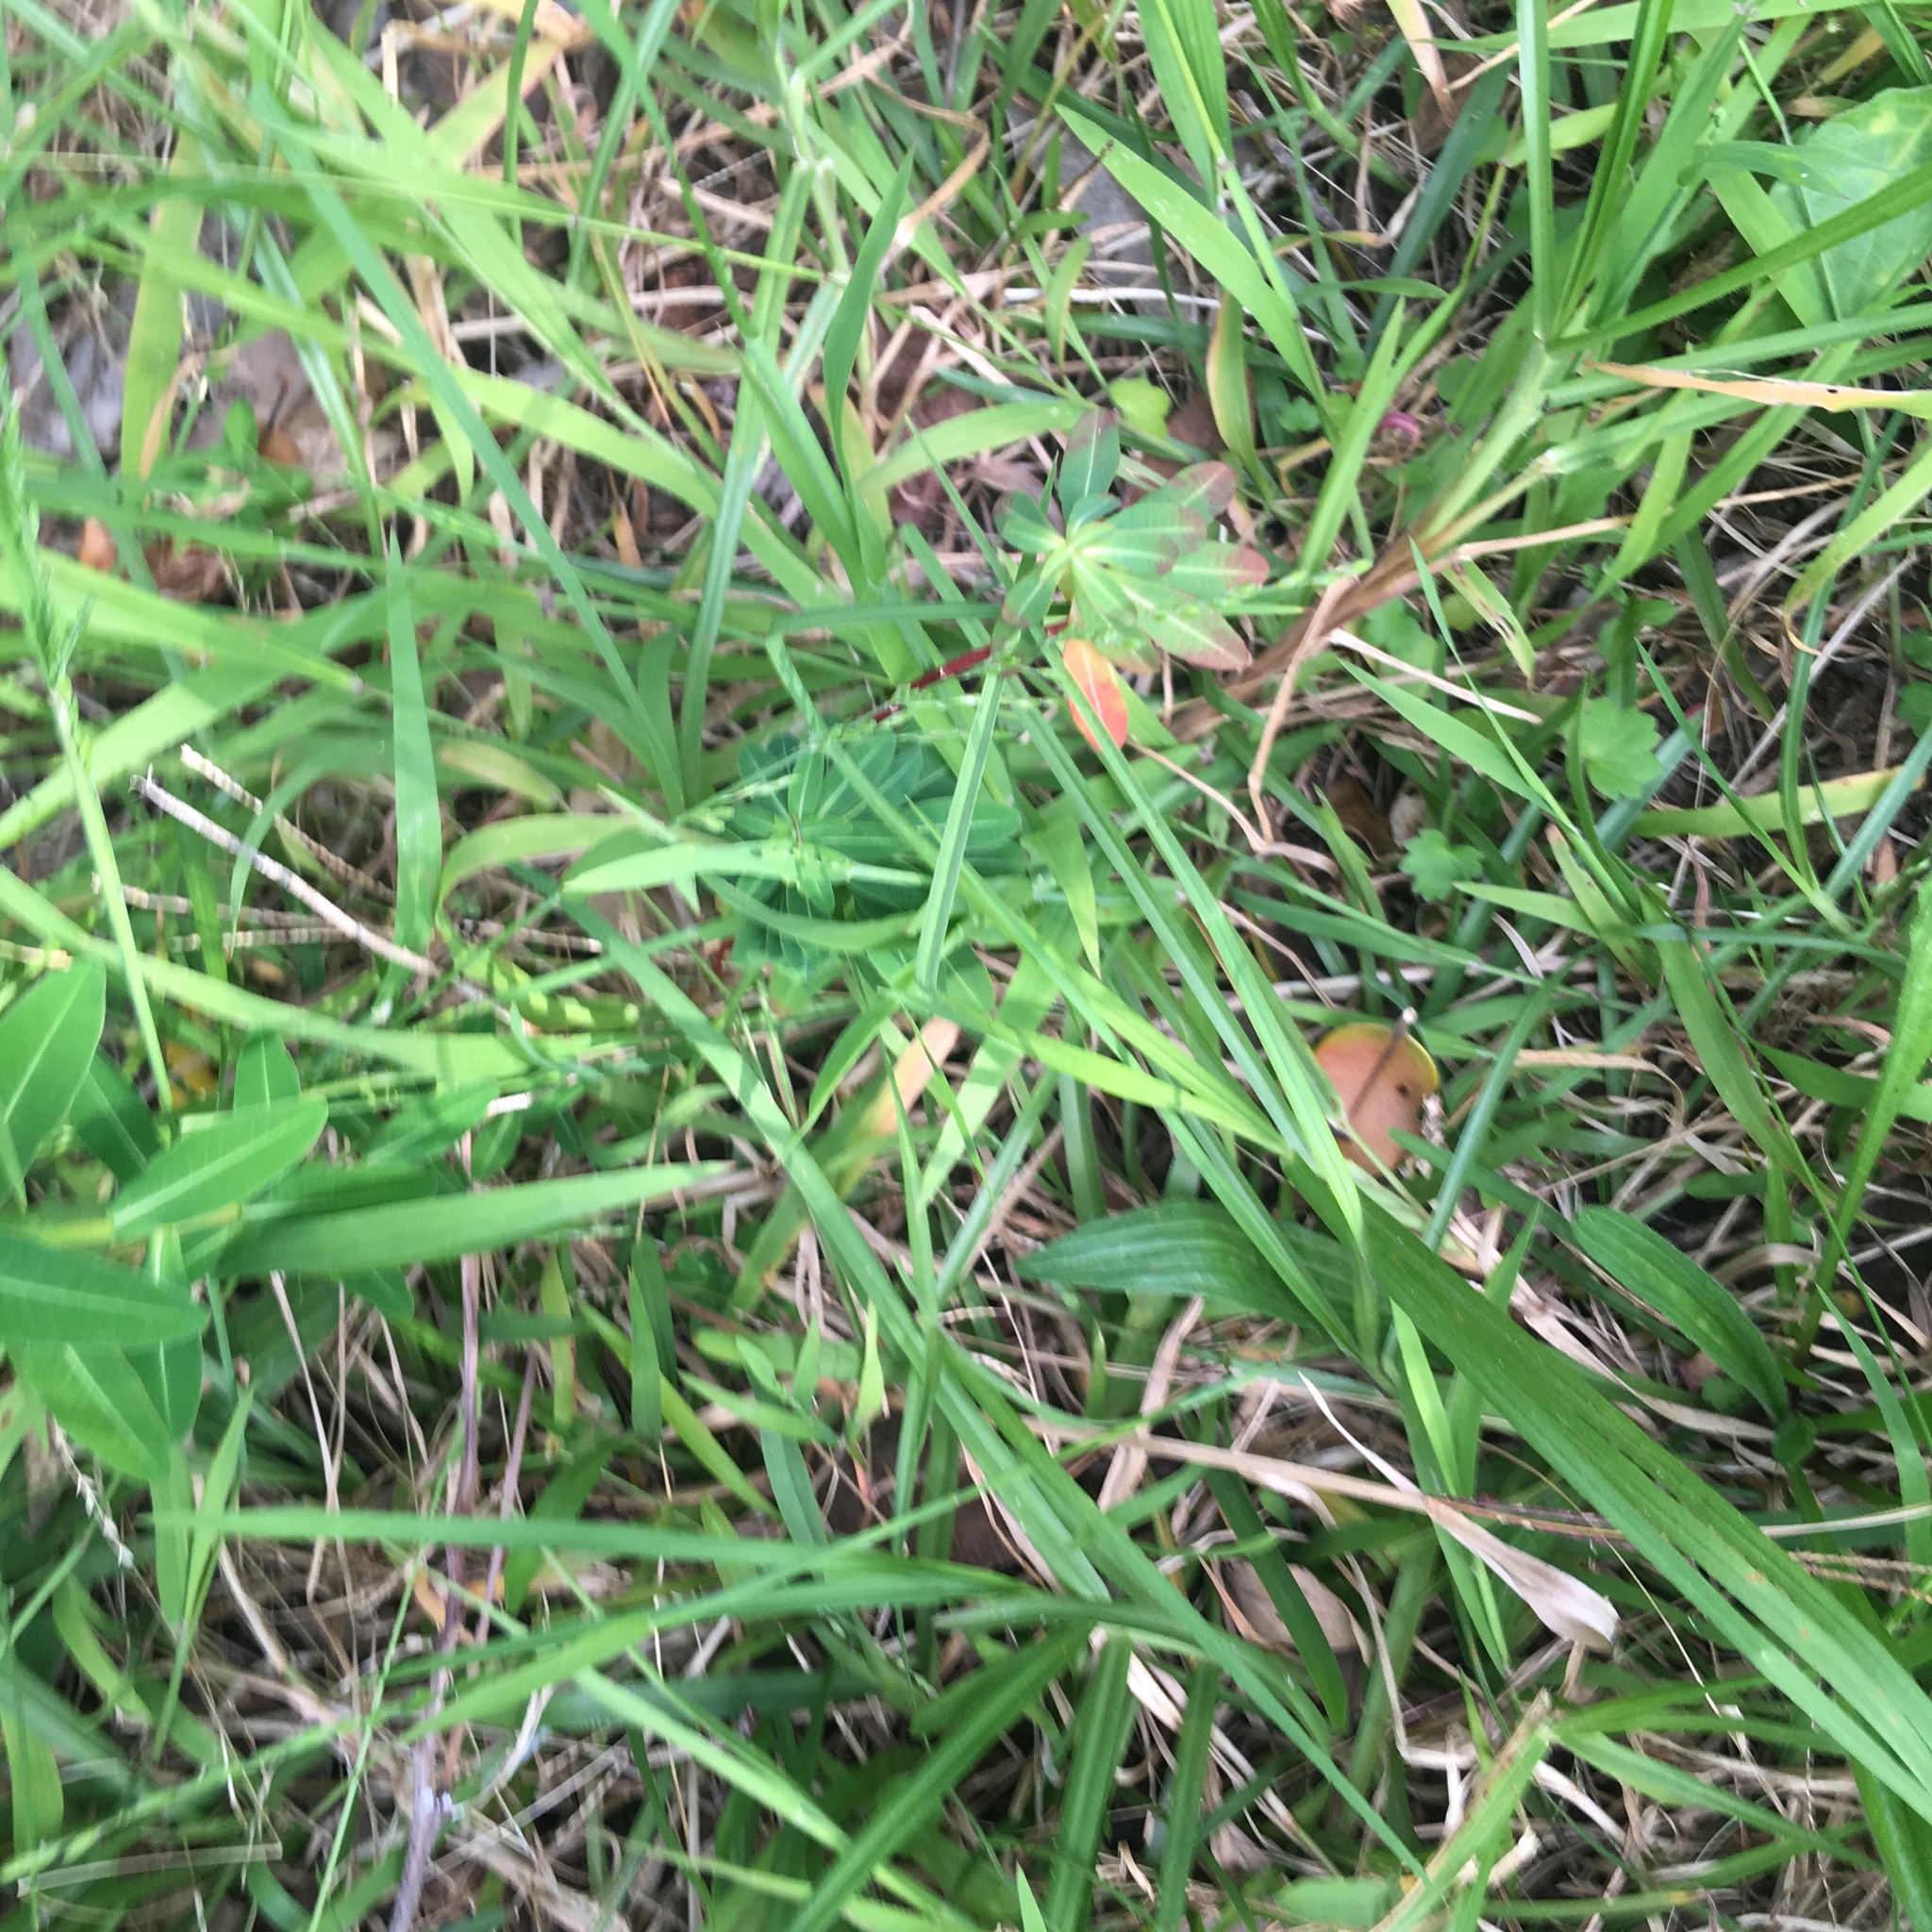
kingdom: Plantae
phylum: Tracheophyta
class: Magnoliopsida
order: Malpighiales
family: Euphorbiaceae
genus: Euphorbia
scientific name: Euphorbia oblongata
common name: Balkan spurge
